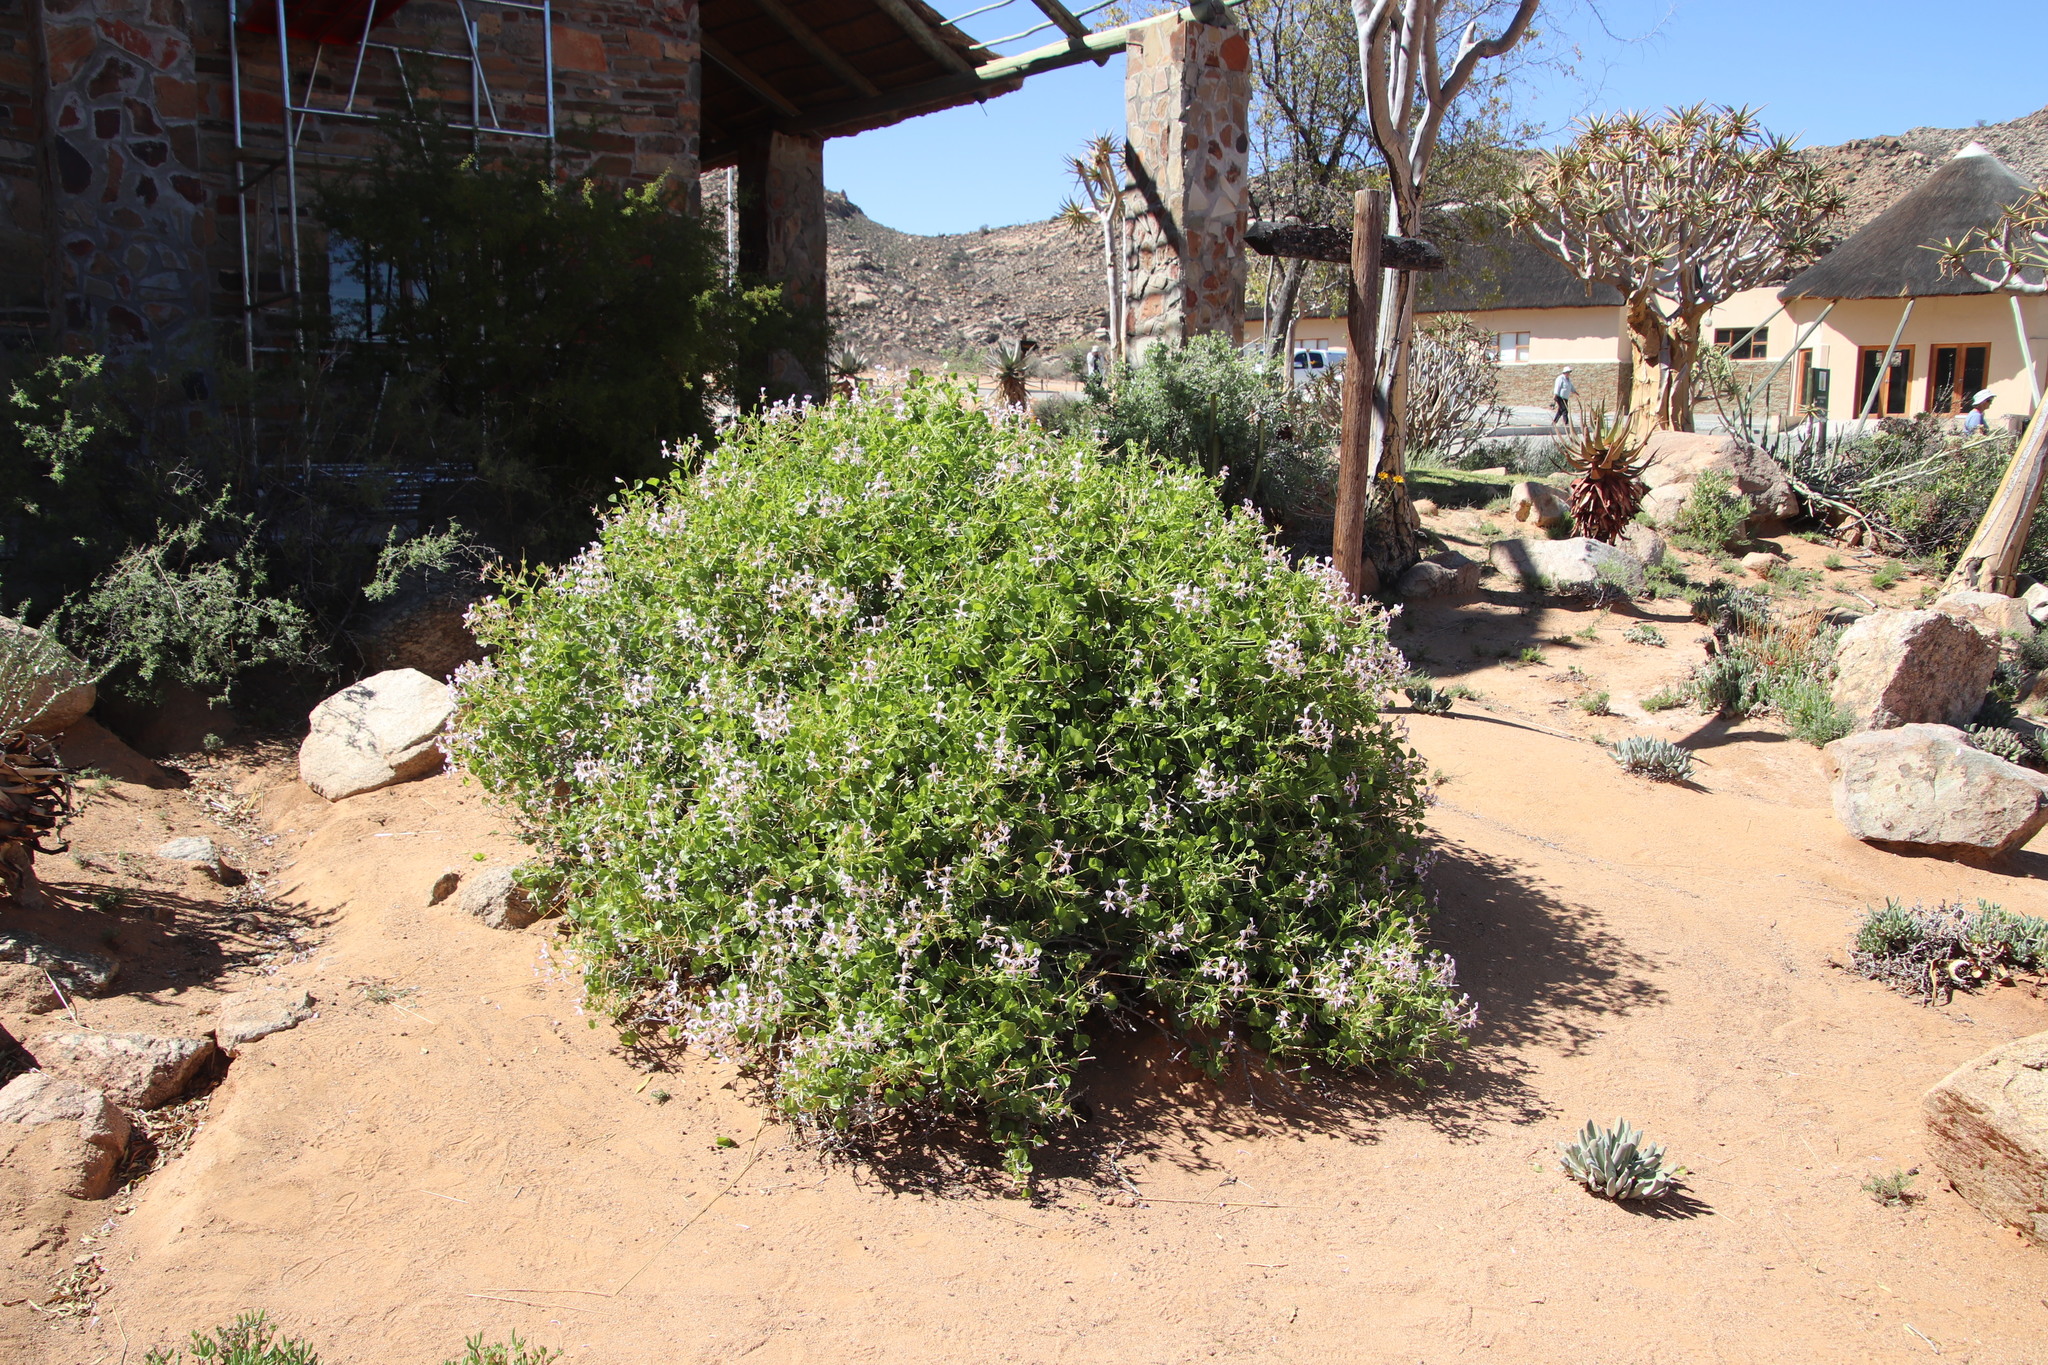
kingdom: Plantae
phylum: Tracheophyta
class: Magnoliopsida
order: Geraniales
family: Geraniaceae
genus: Pelargonium
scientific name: Pelargonium spinosum
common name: Thorny pelargonium
